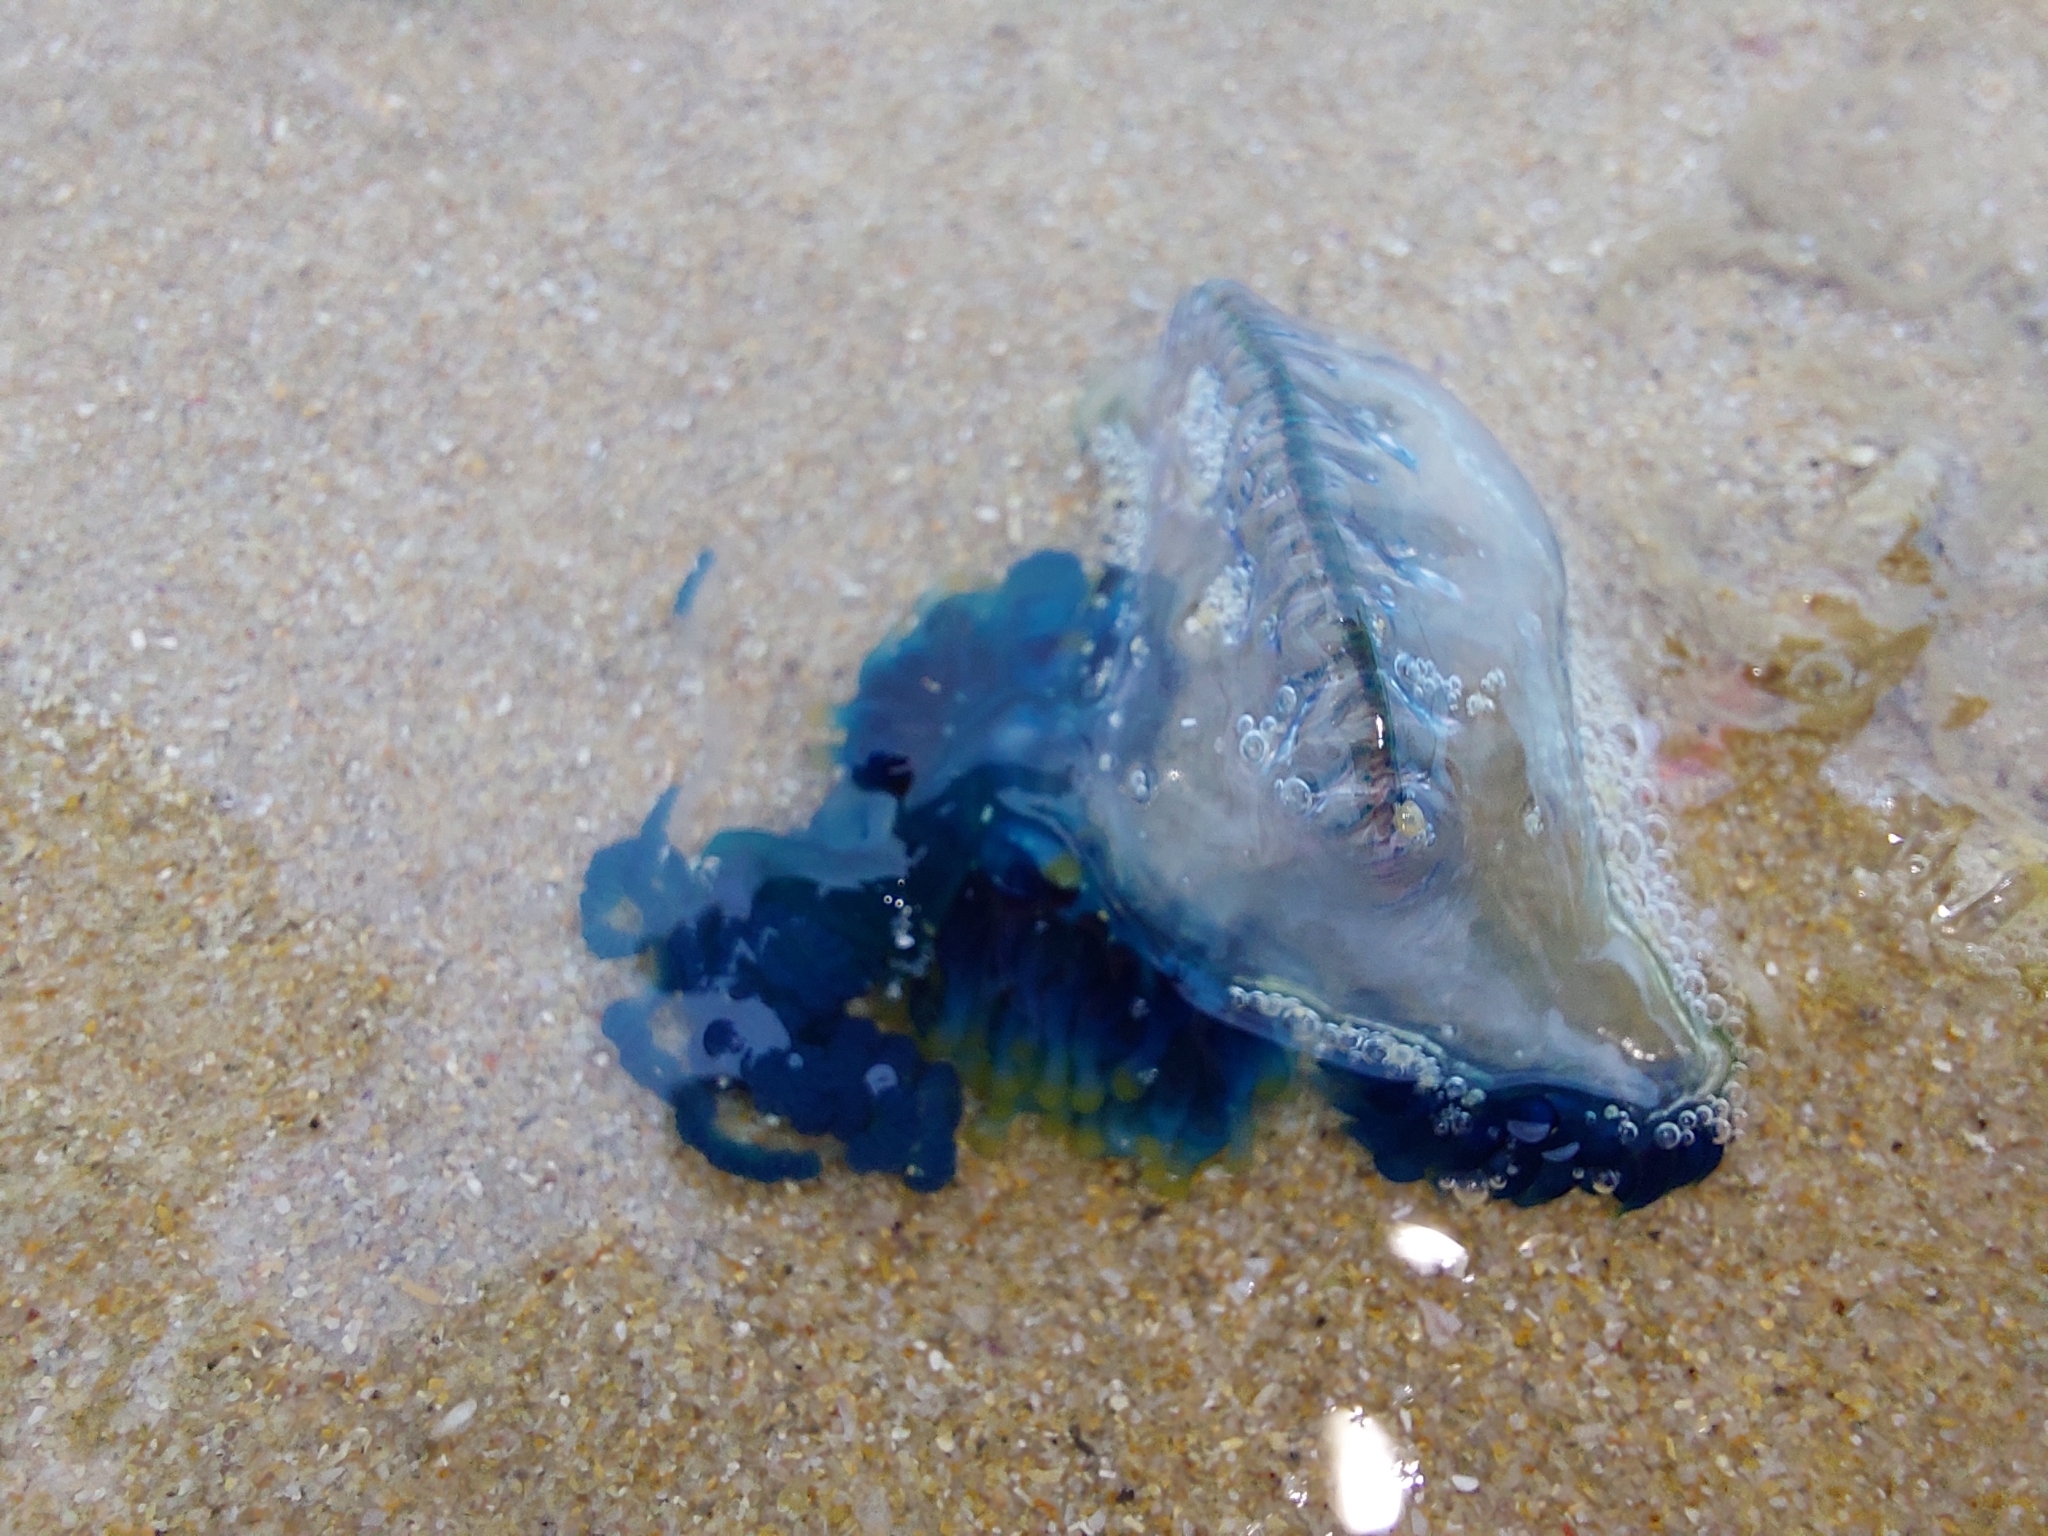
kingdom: Animalia
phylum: Cnidaria
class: Hydrozoa
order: Siphonophorae
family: Physaliidae
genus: Physalia
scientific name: Physalia physalis
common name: Portuguese man-of-war
